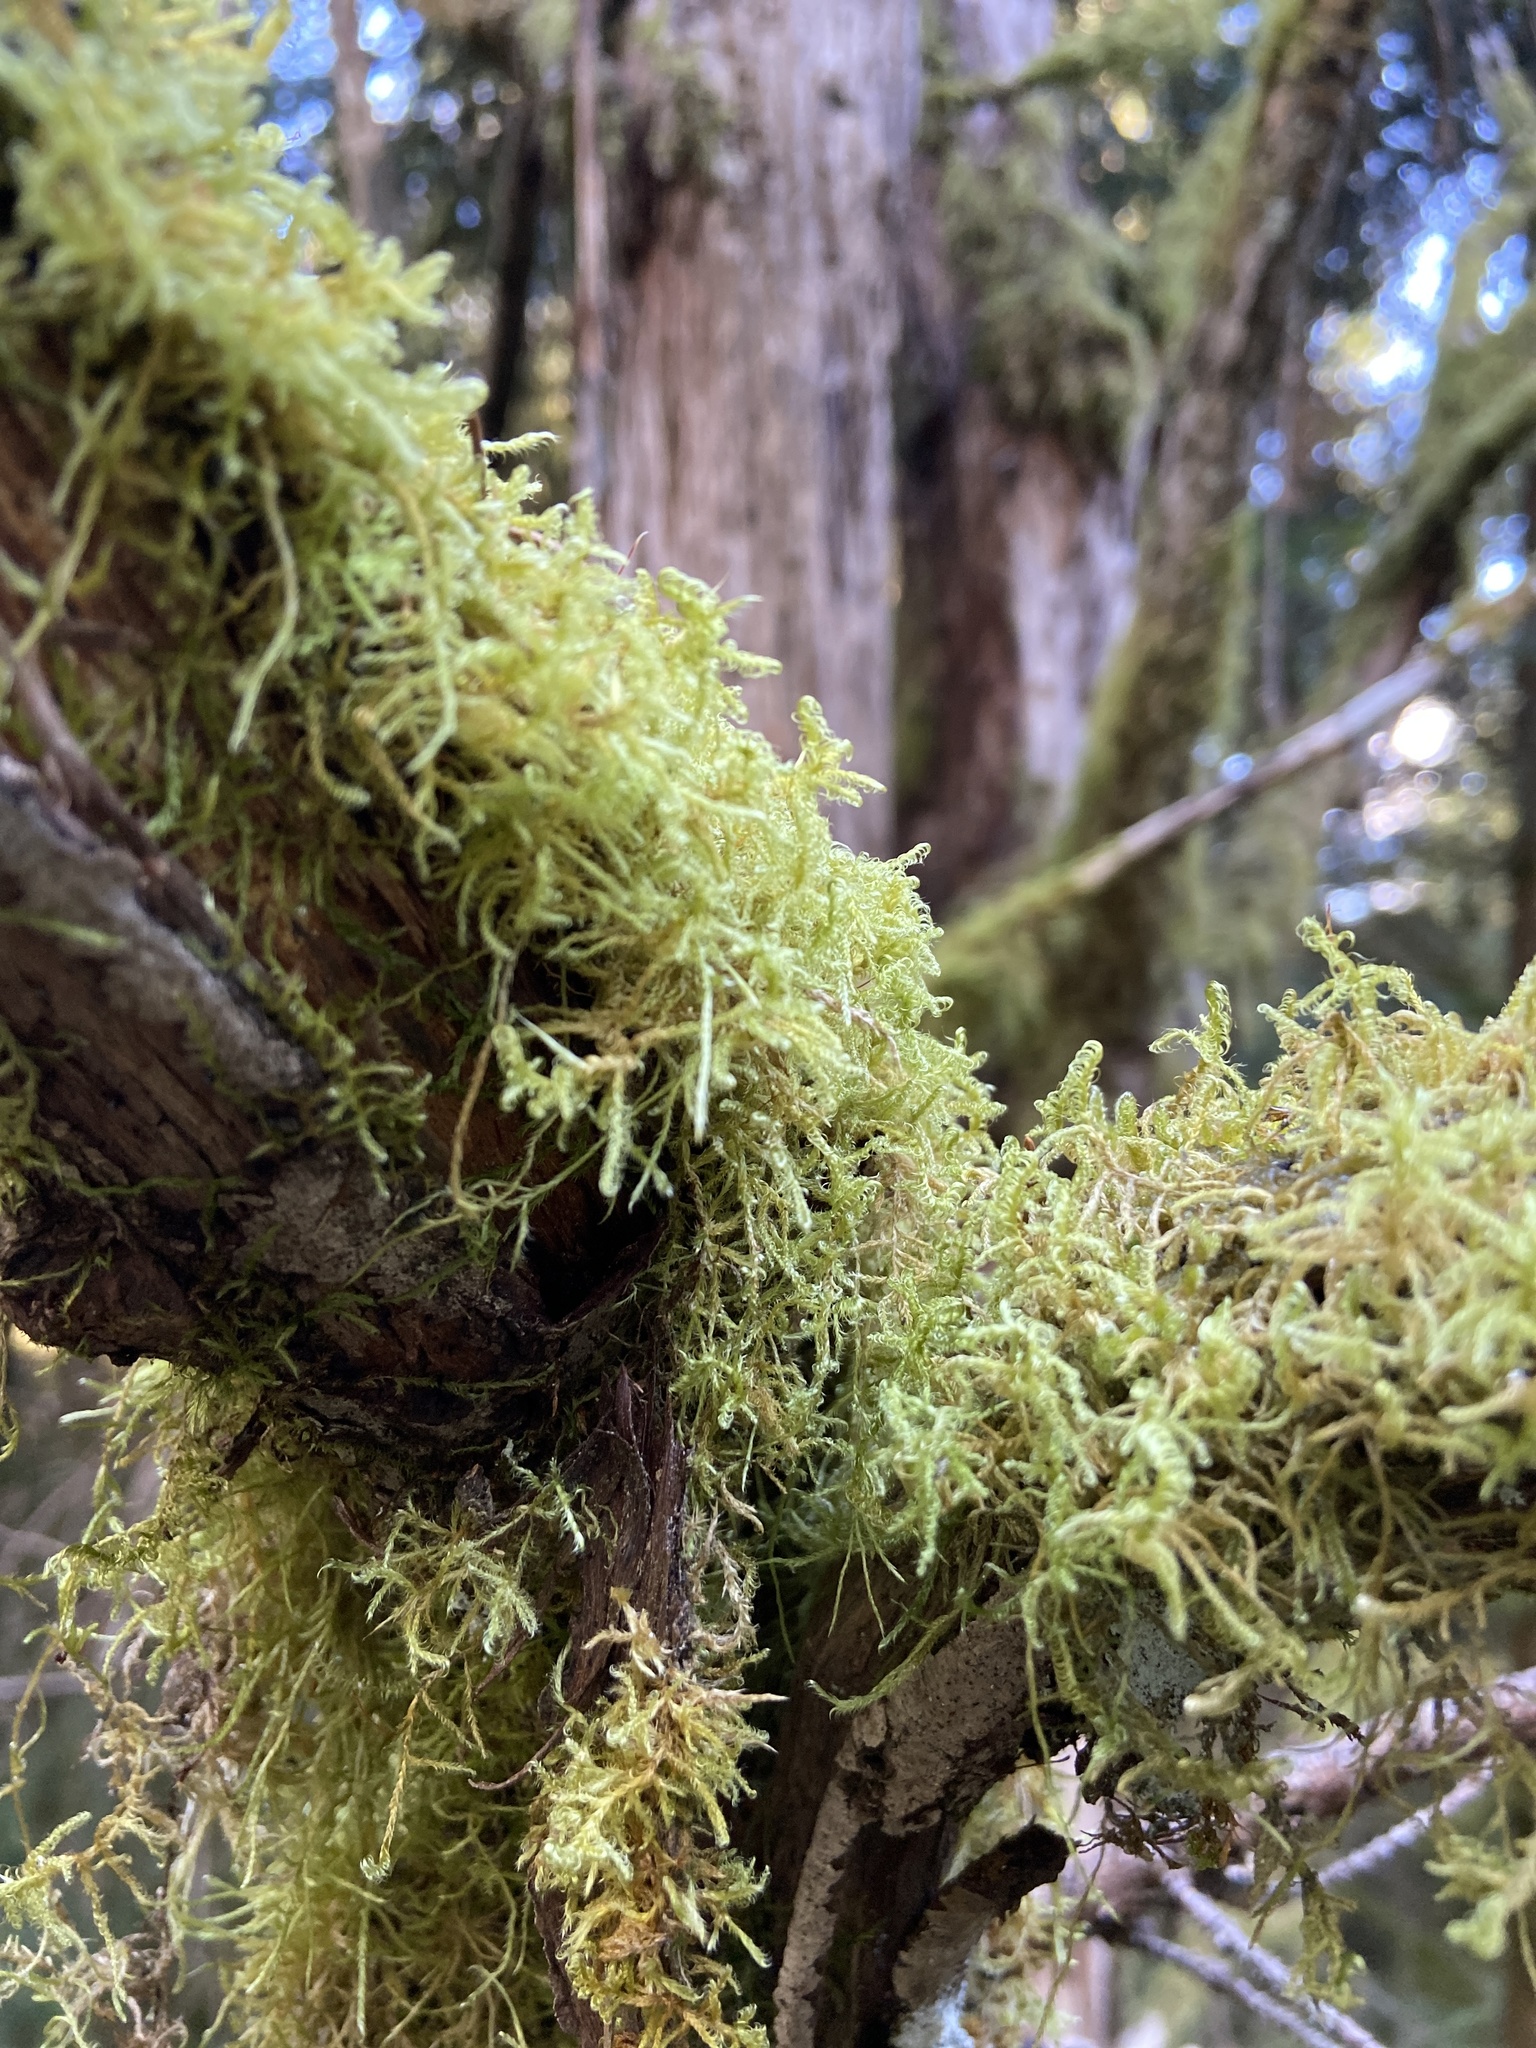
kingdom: Plantae
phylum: Bryophyta
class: Bryopsida
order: Hypnales
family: Scorpidiaceae
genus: Sanionia
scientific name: Sanionia uncinata
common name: Sickle moss
